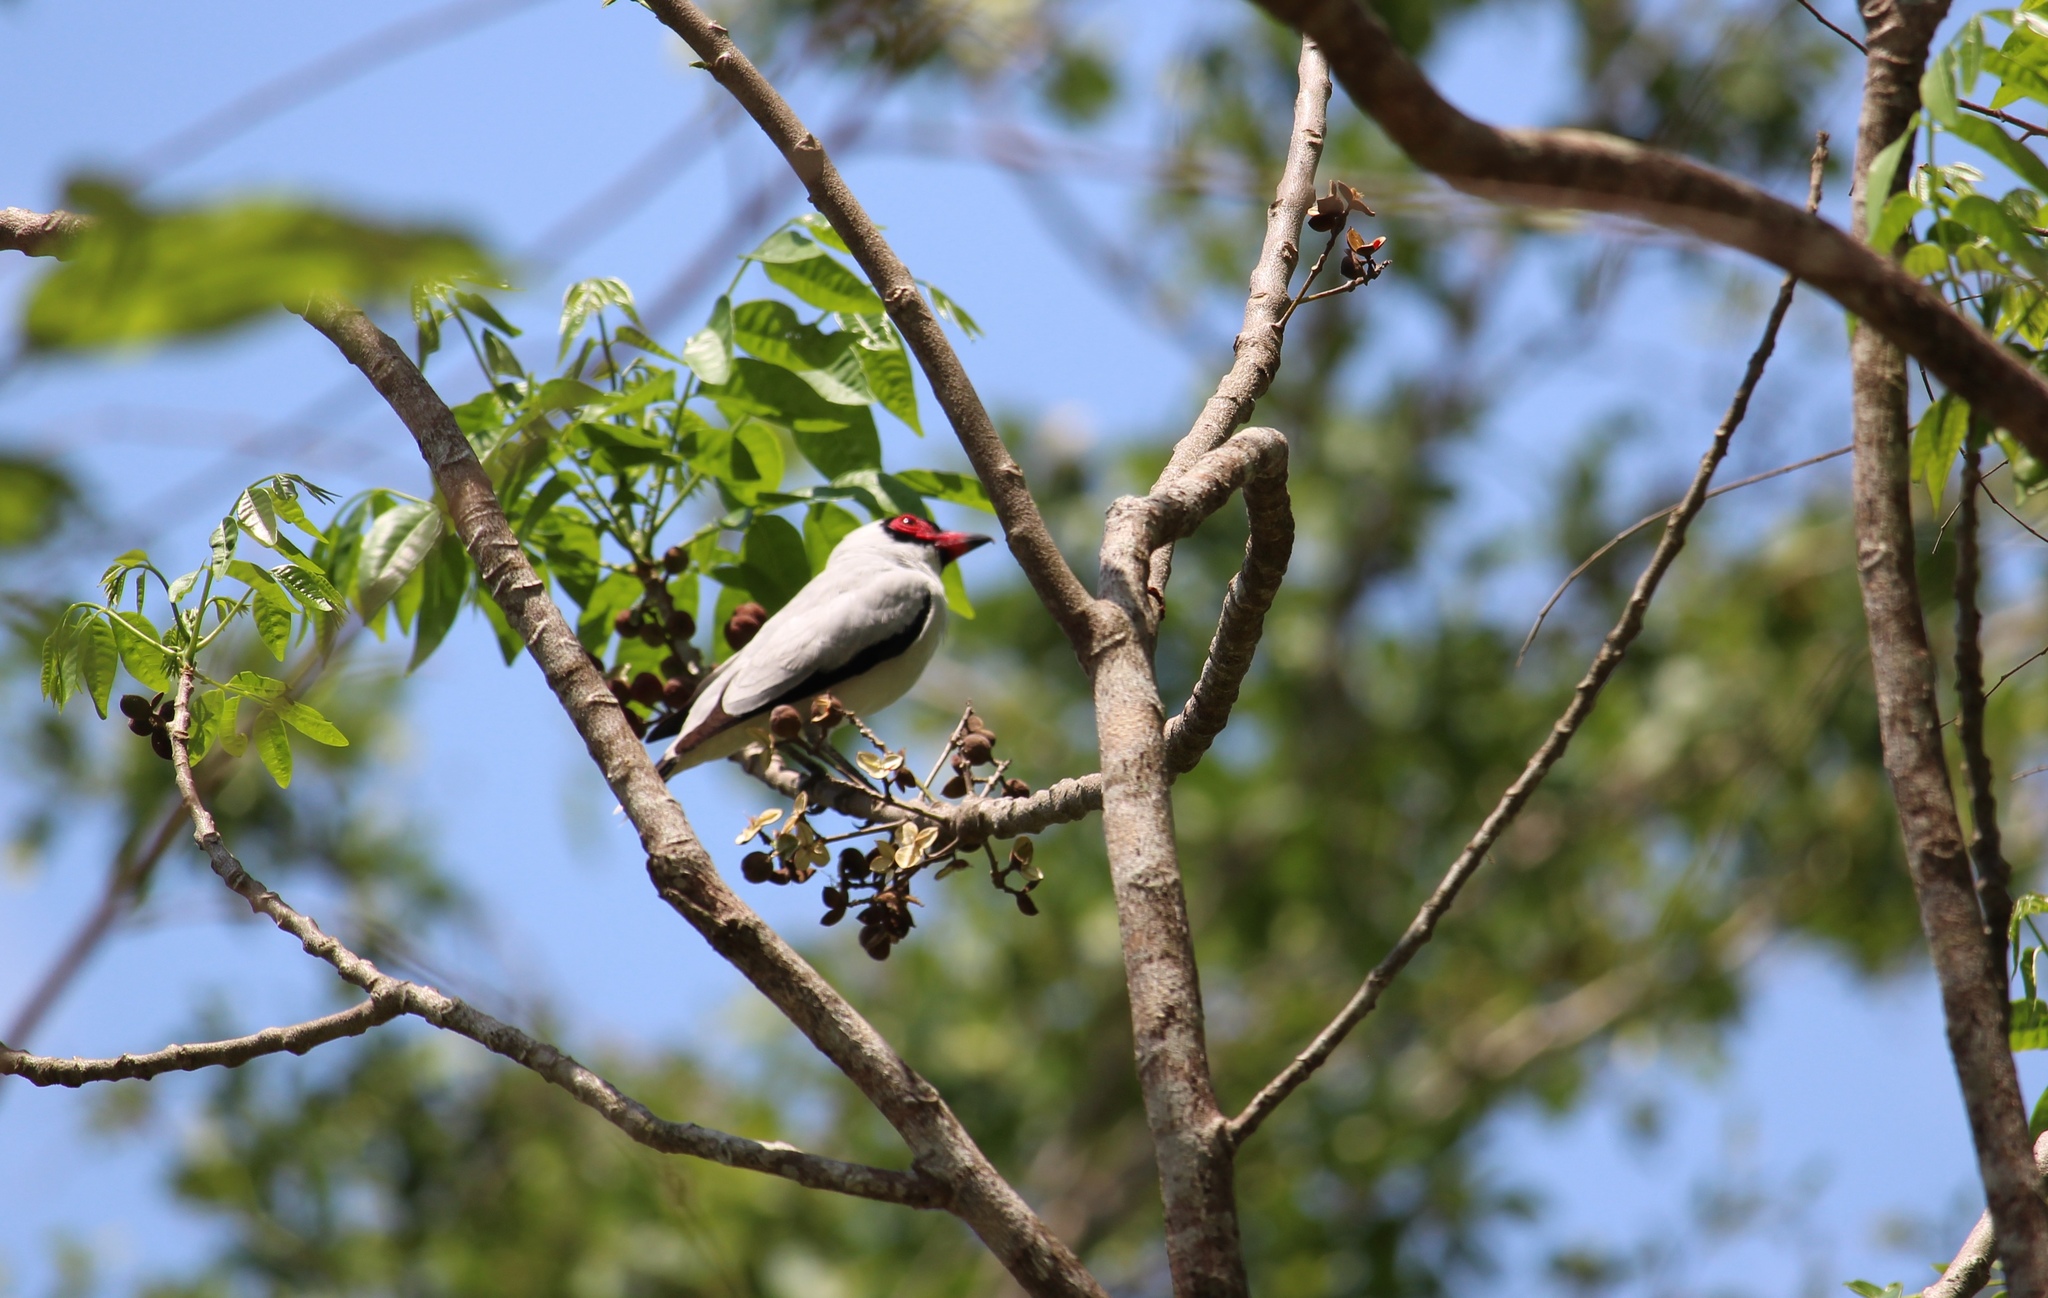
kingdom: Animalia
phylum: Chordata
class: Aves
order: Passeriformes
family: Cotingidae
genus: Tityra
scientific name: Tityra semifasciata
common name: Masked tityra
